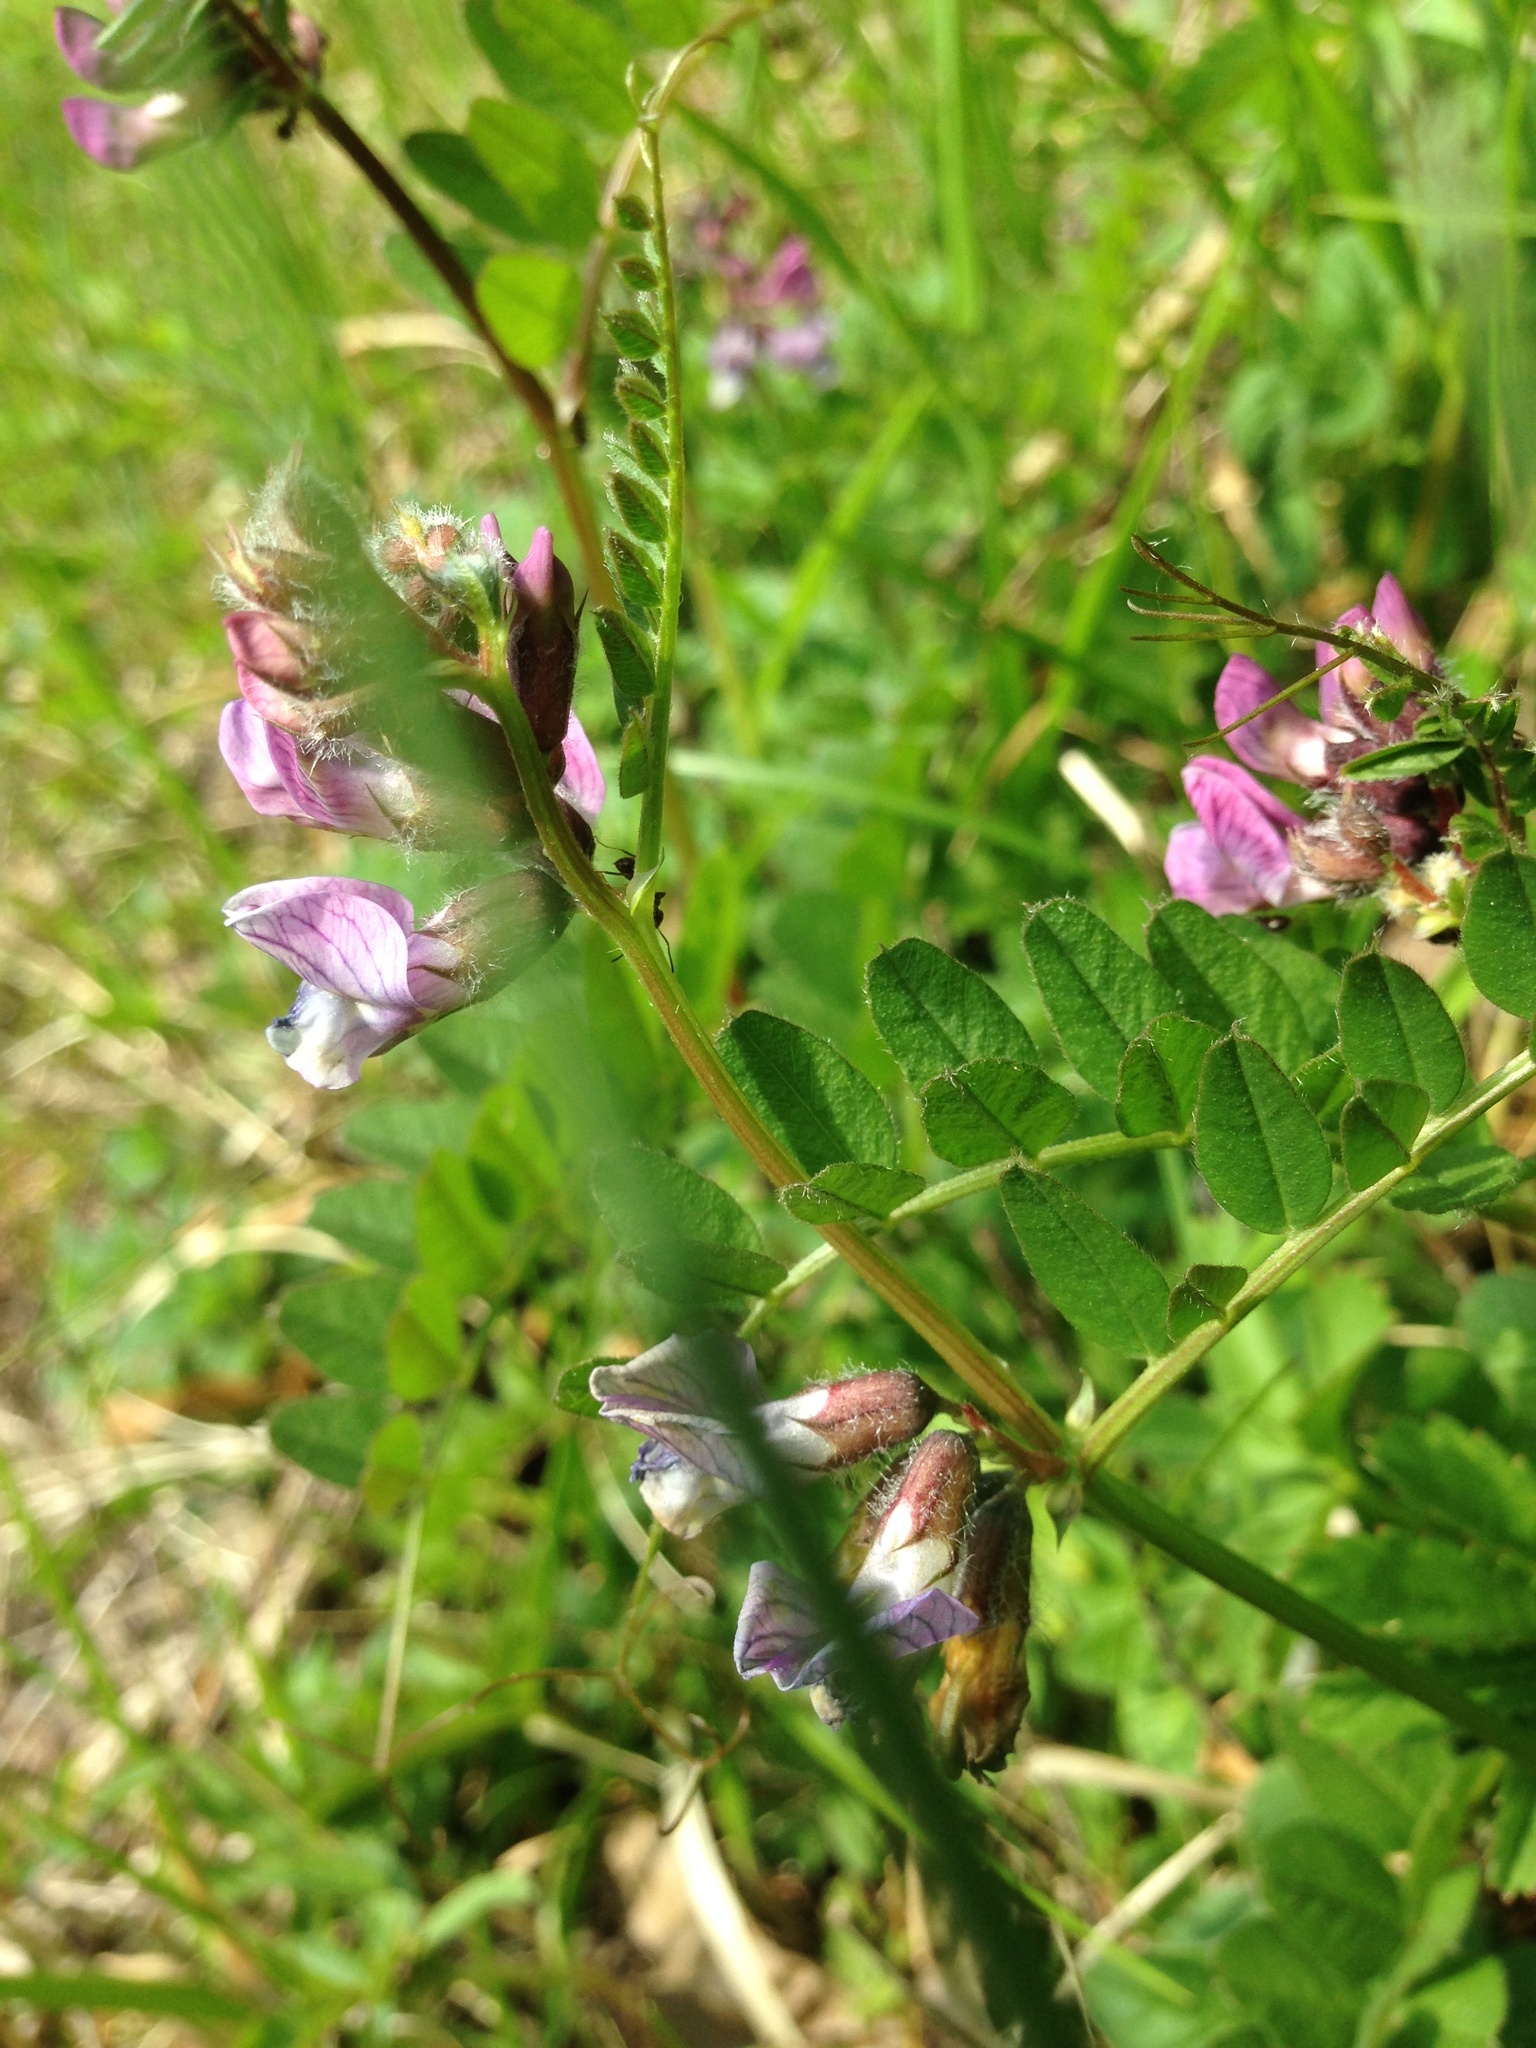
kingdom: Plantae
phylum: Tracheophyta
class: Magnoliopsida
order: Fabales
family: Fabaceae
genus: Vicia
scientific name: Vicia sepium
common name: Bush vetch
